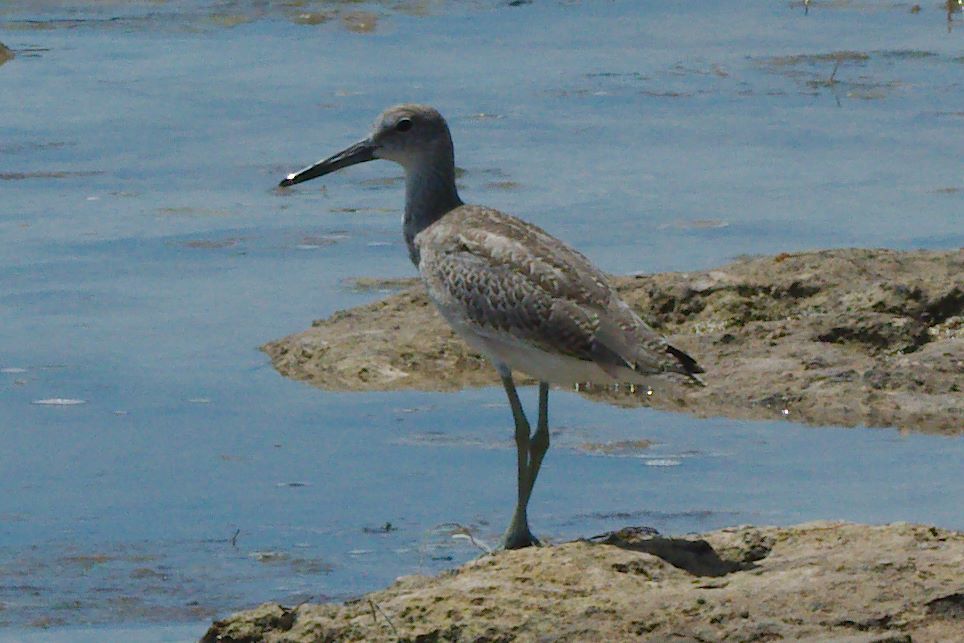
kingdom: Animalia
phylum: Chordata
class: Aves
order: Charadriiformes
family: Scolopacidae
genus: Tringa
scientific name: Tringa semipalmata
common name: Willet
